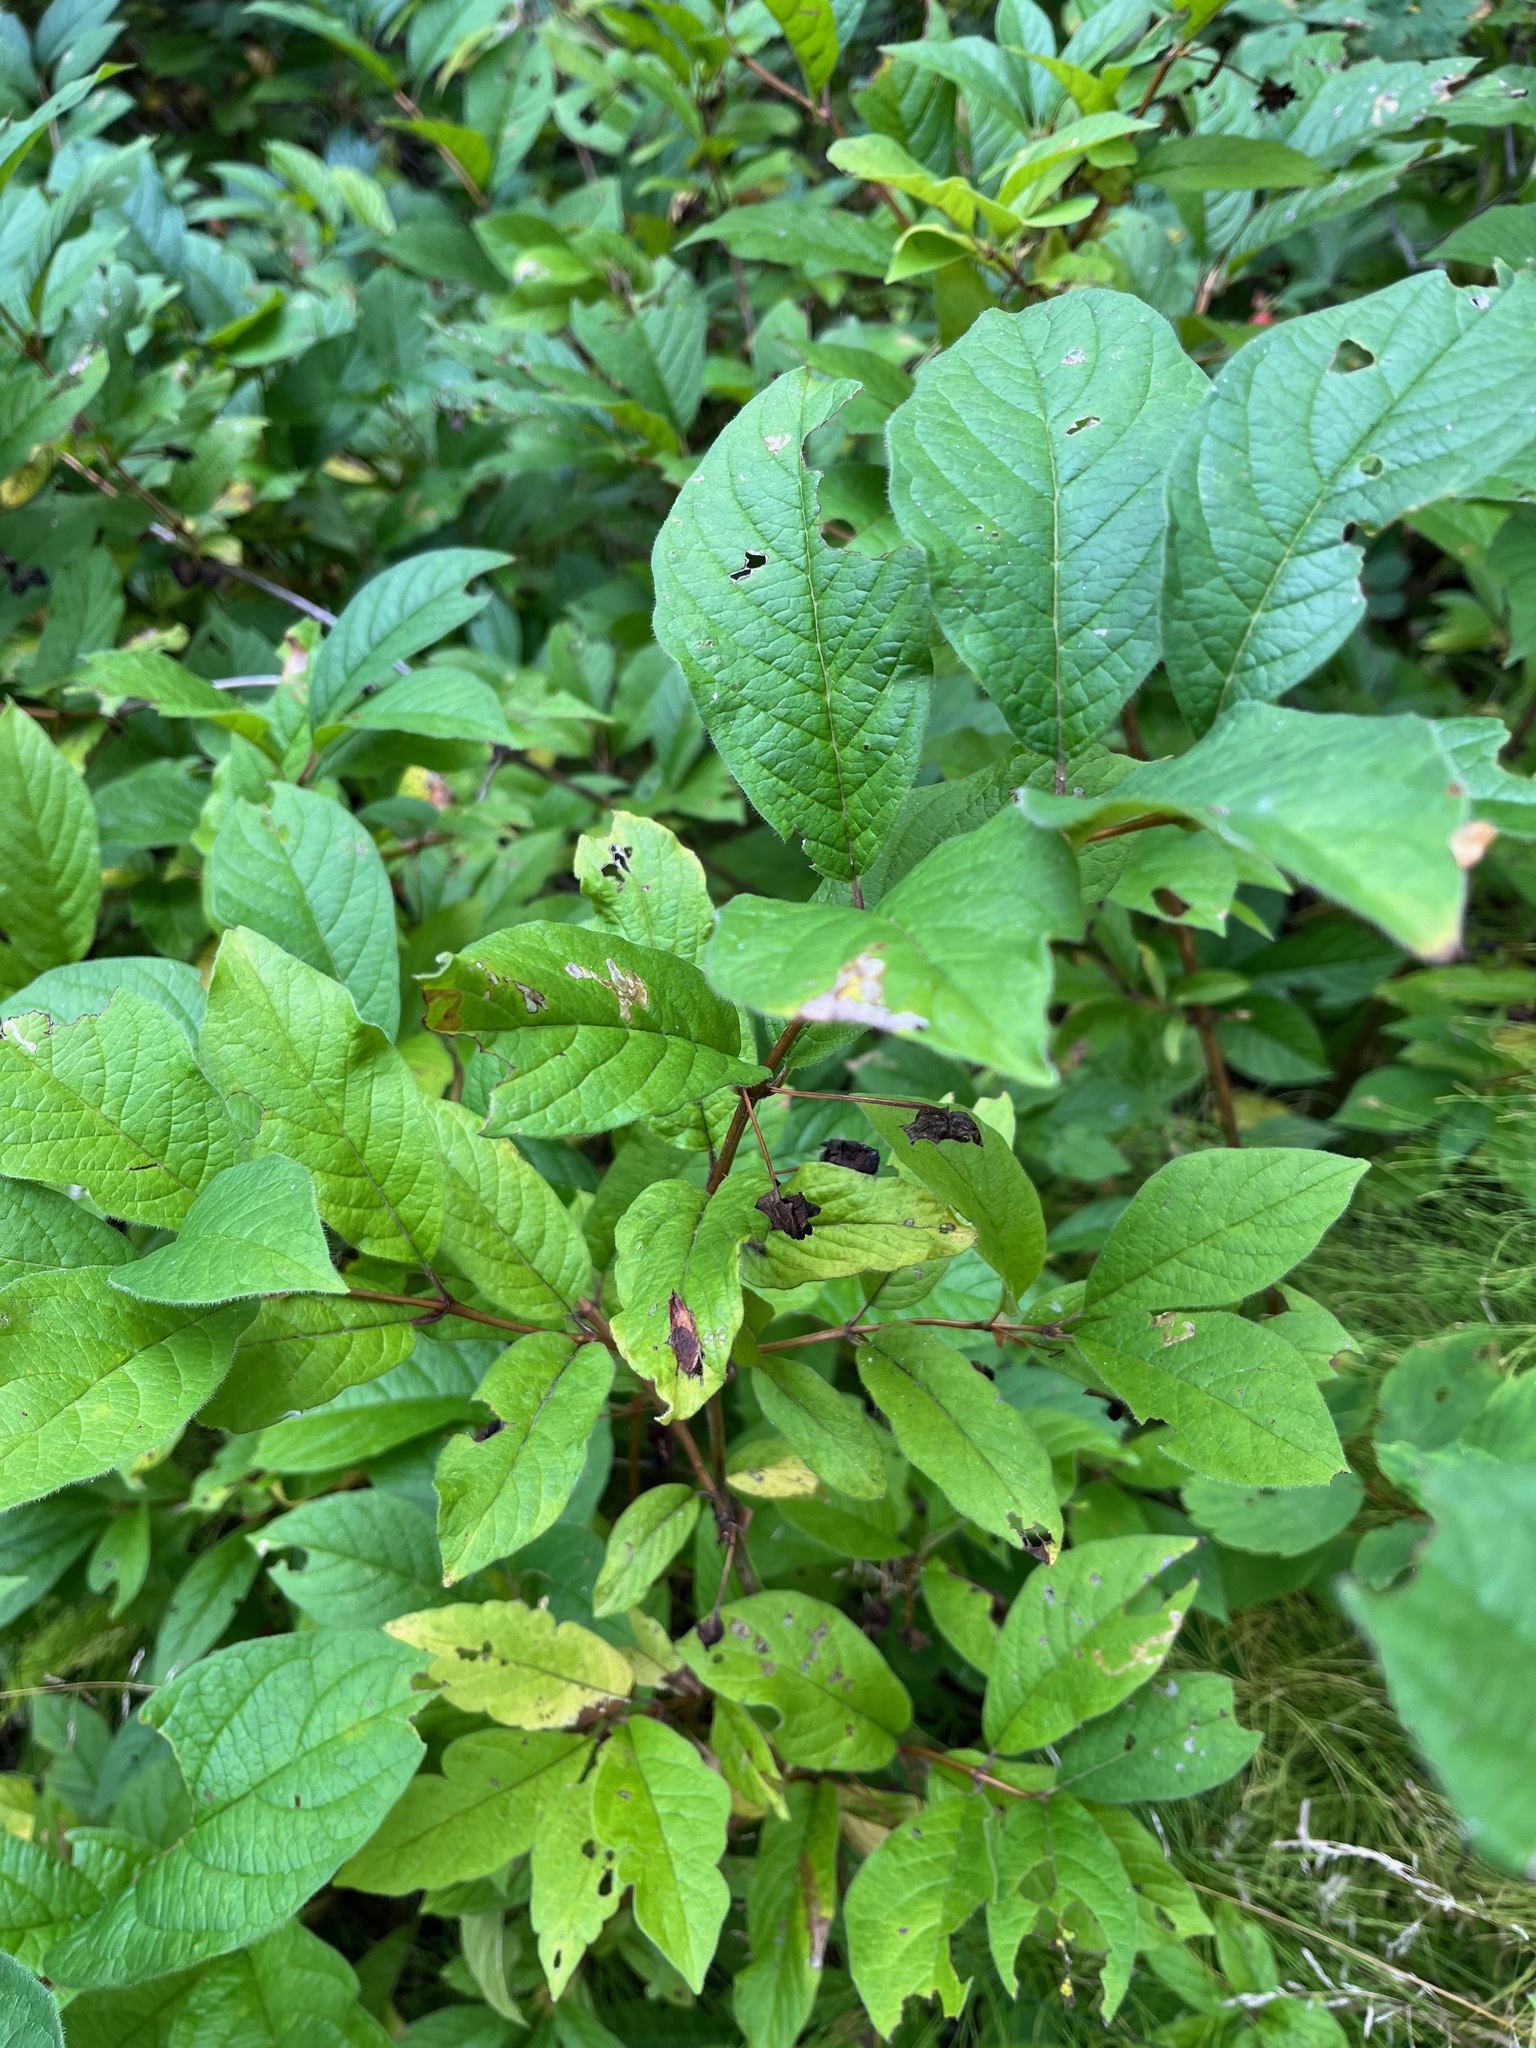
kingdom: Plantae
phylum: Tracheophyta
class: Magnoliopsida
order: Dipsacales
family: Caprifoliaceae
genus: Lonicera
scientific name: Lonicera involucrata
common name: Californian honeysuckle
